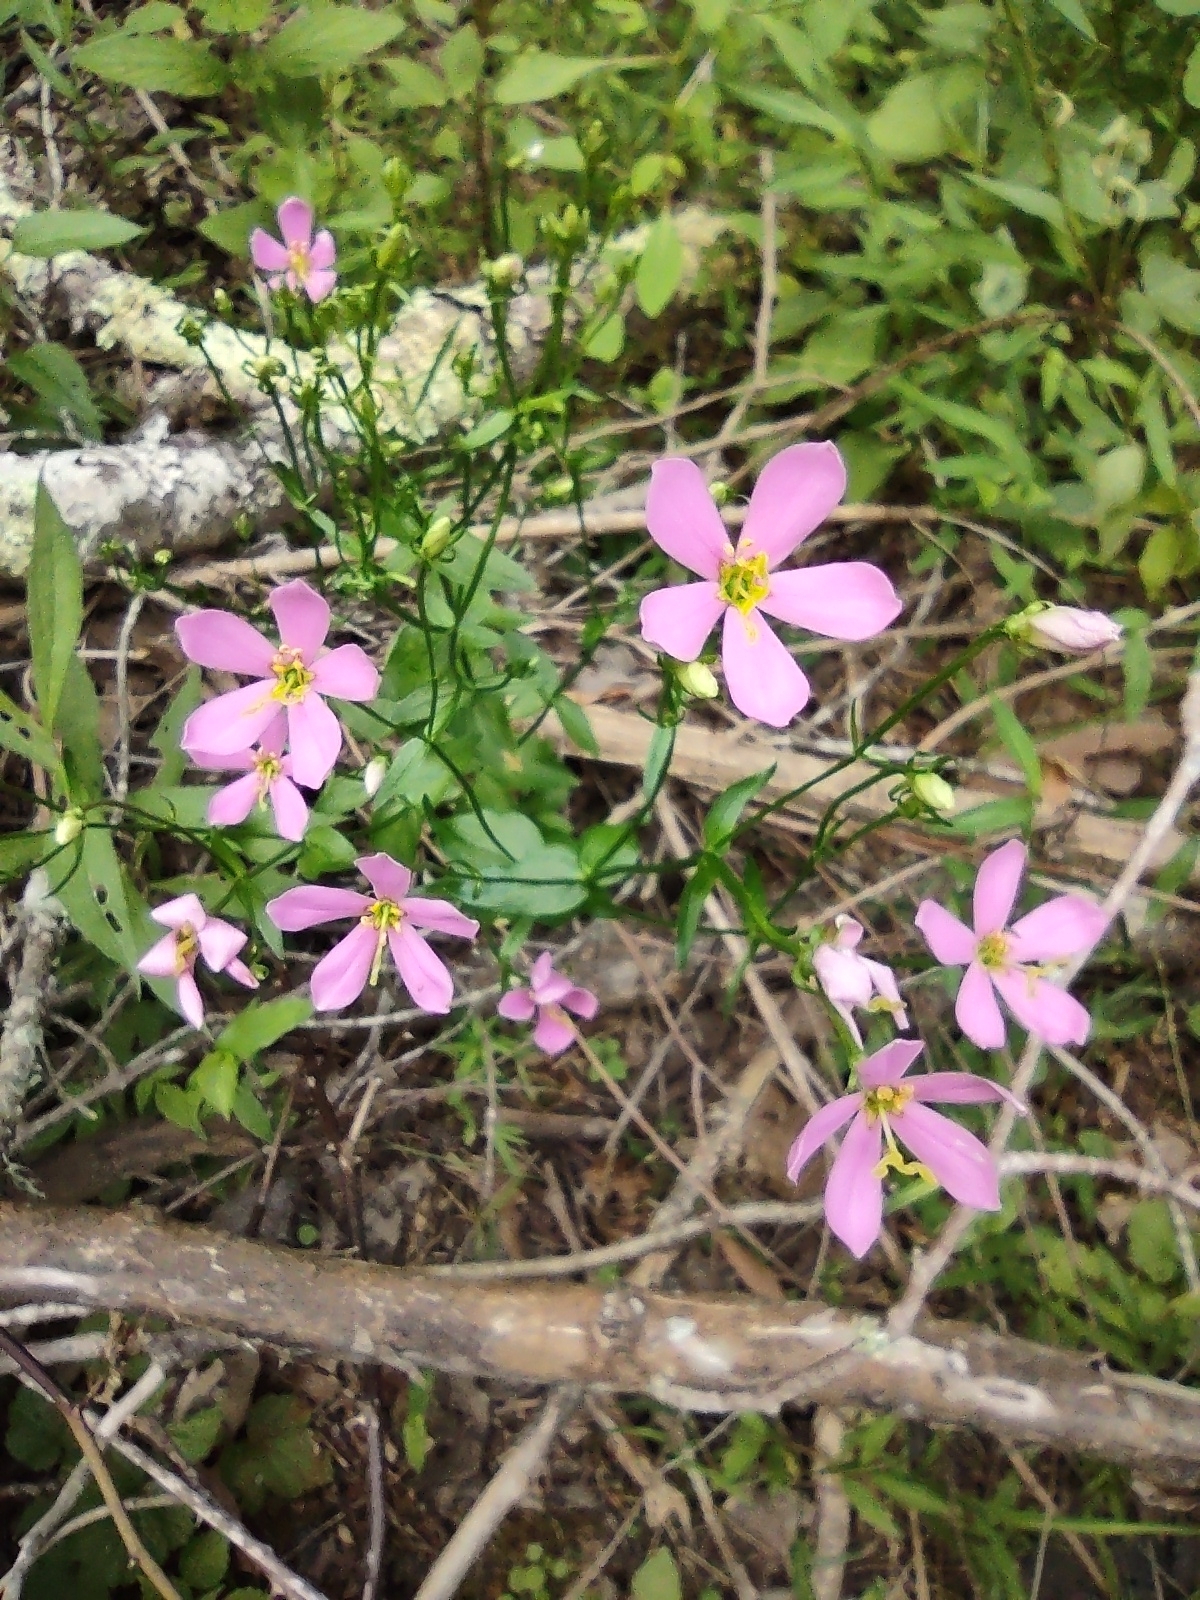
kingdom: Plantae
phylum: Tracheophyta
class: Magnoliopsida
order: Gentianales
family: Gentianaceae
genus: Sabatia
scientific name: Sabatia angularis
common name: Rose-pink
